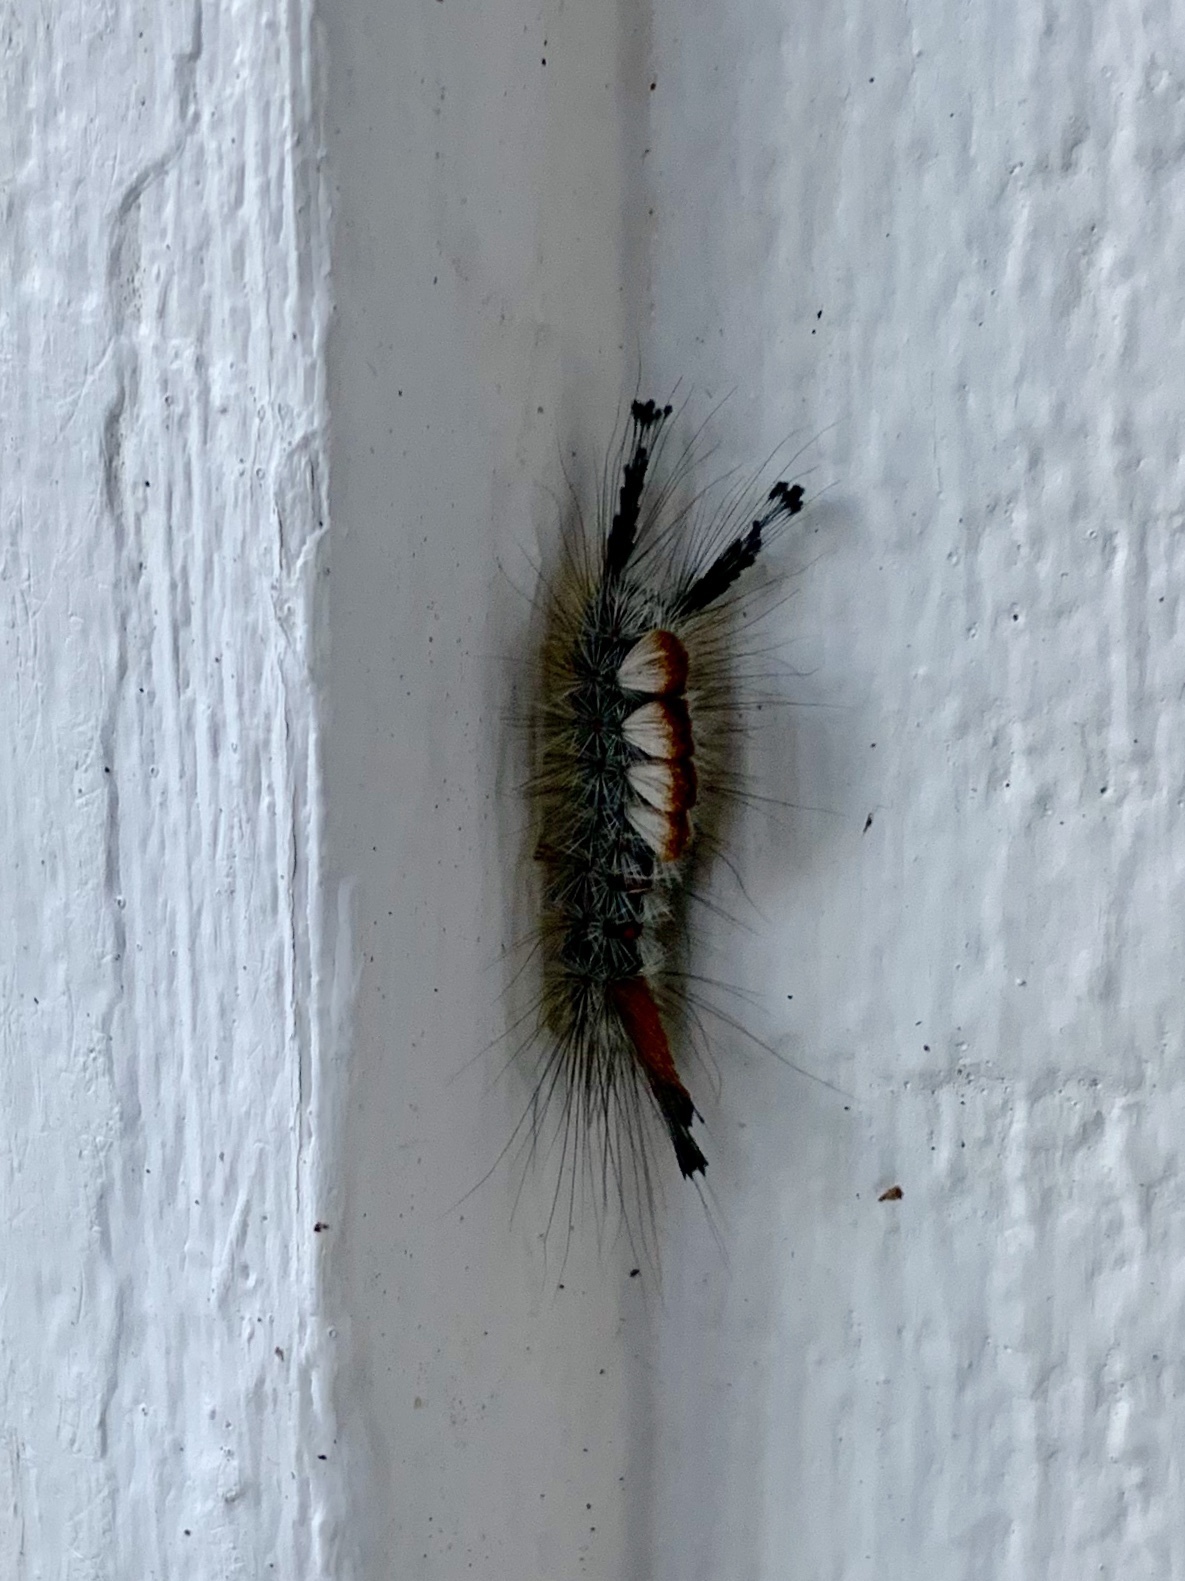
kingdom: Animalia
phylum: Arthropoda
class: Insecta
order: Lepidoptera
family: Erebidae
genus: Orgyia
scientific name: Orgyia pseudotsugata
